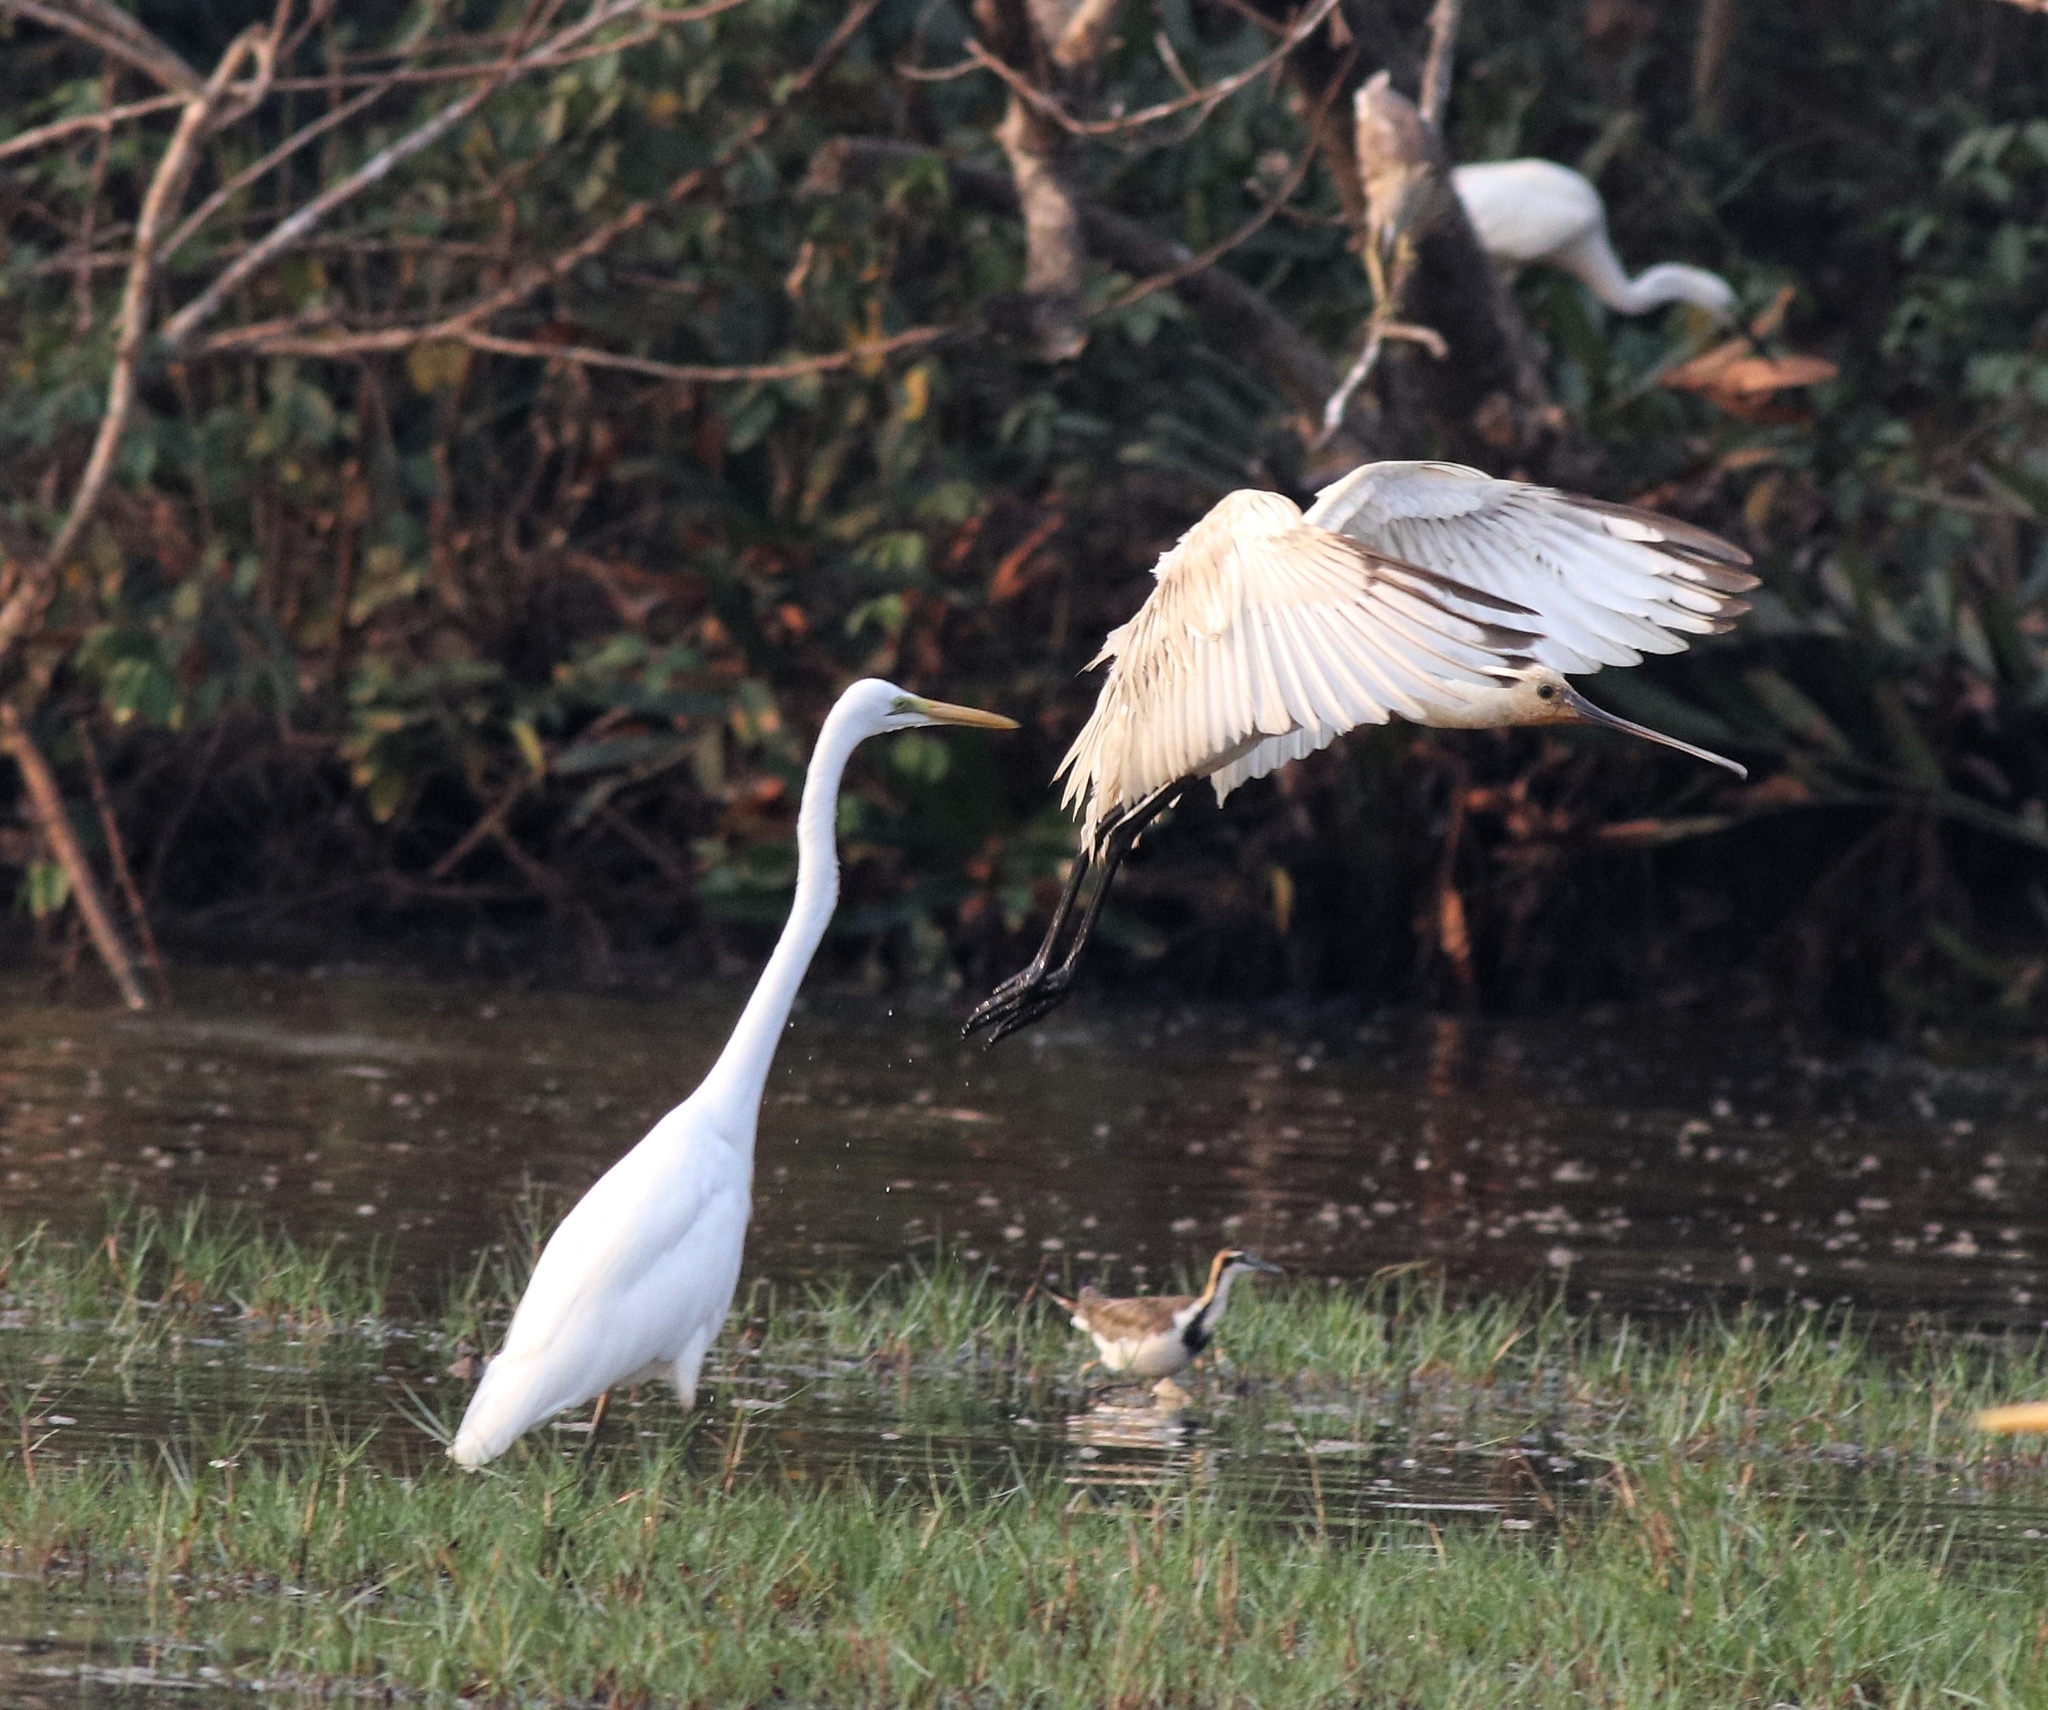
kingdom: Animalia
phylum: Chordata
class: Aves
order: Pelecaniformes
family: Ardeidae
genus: Ardea
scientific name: Ardea alba
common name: Great egret
